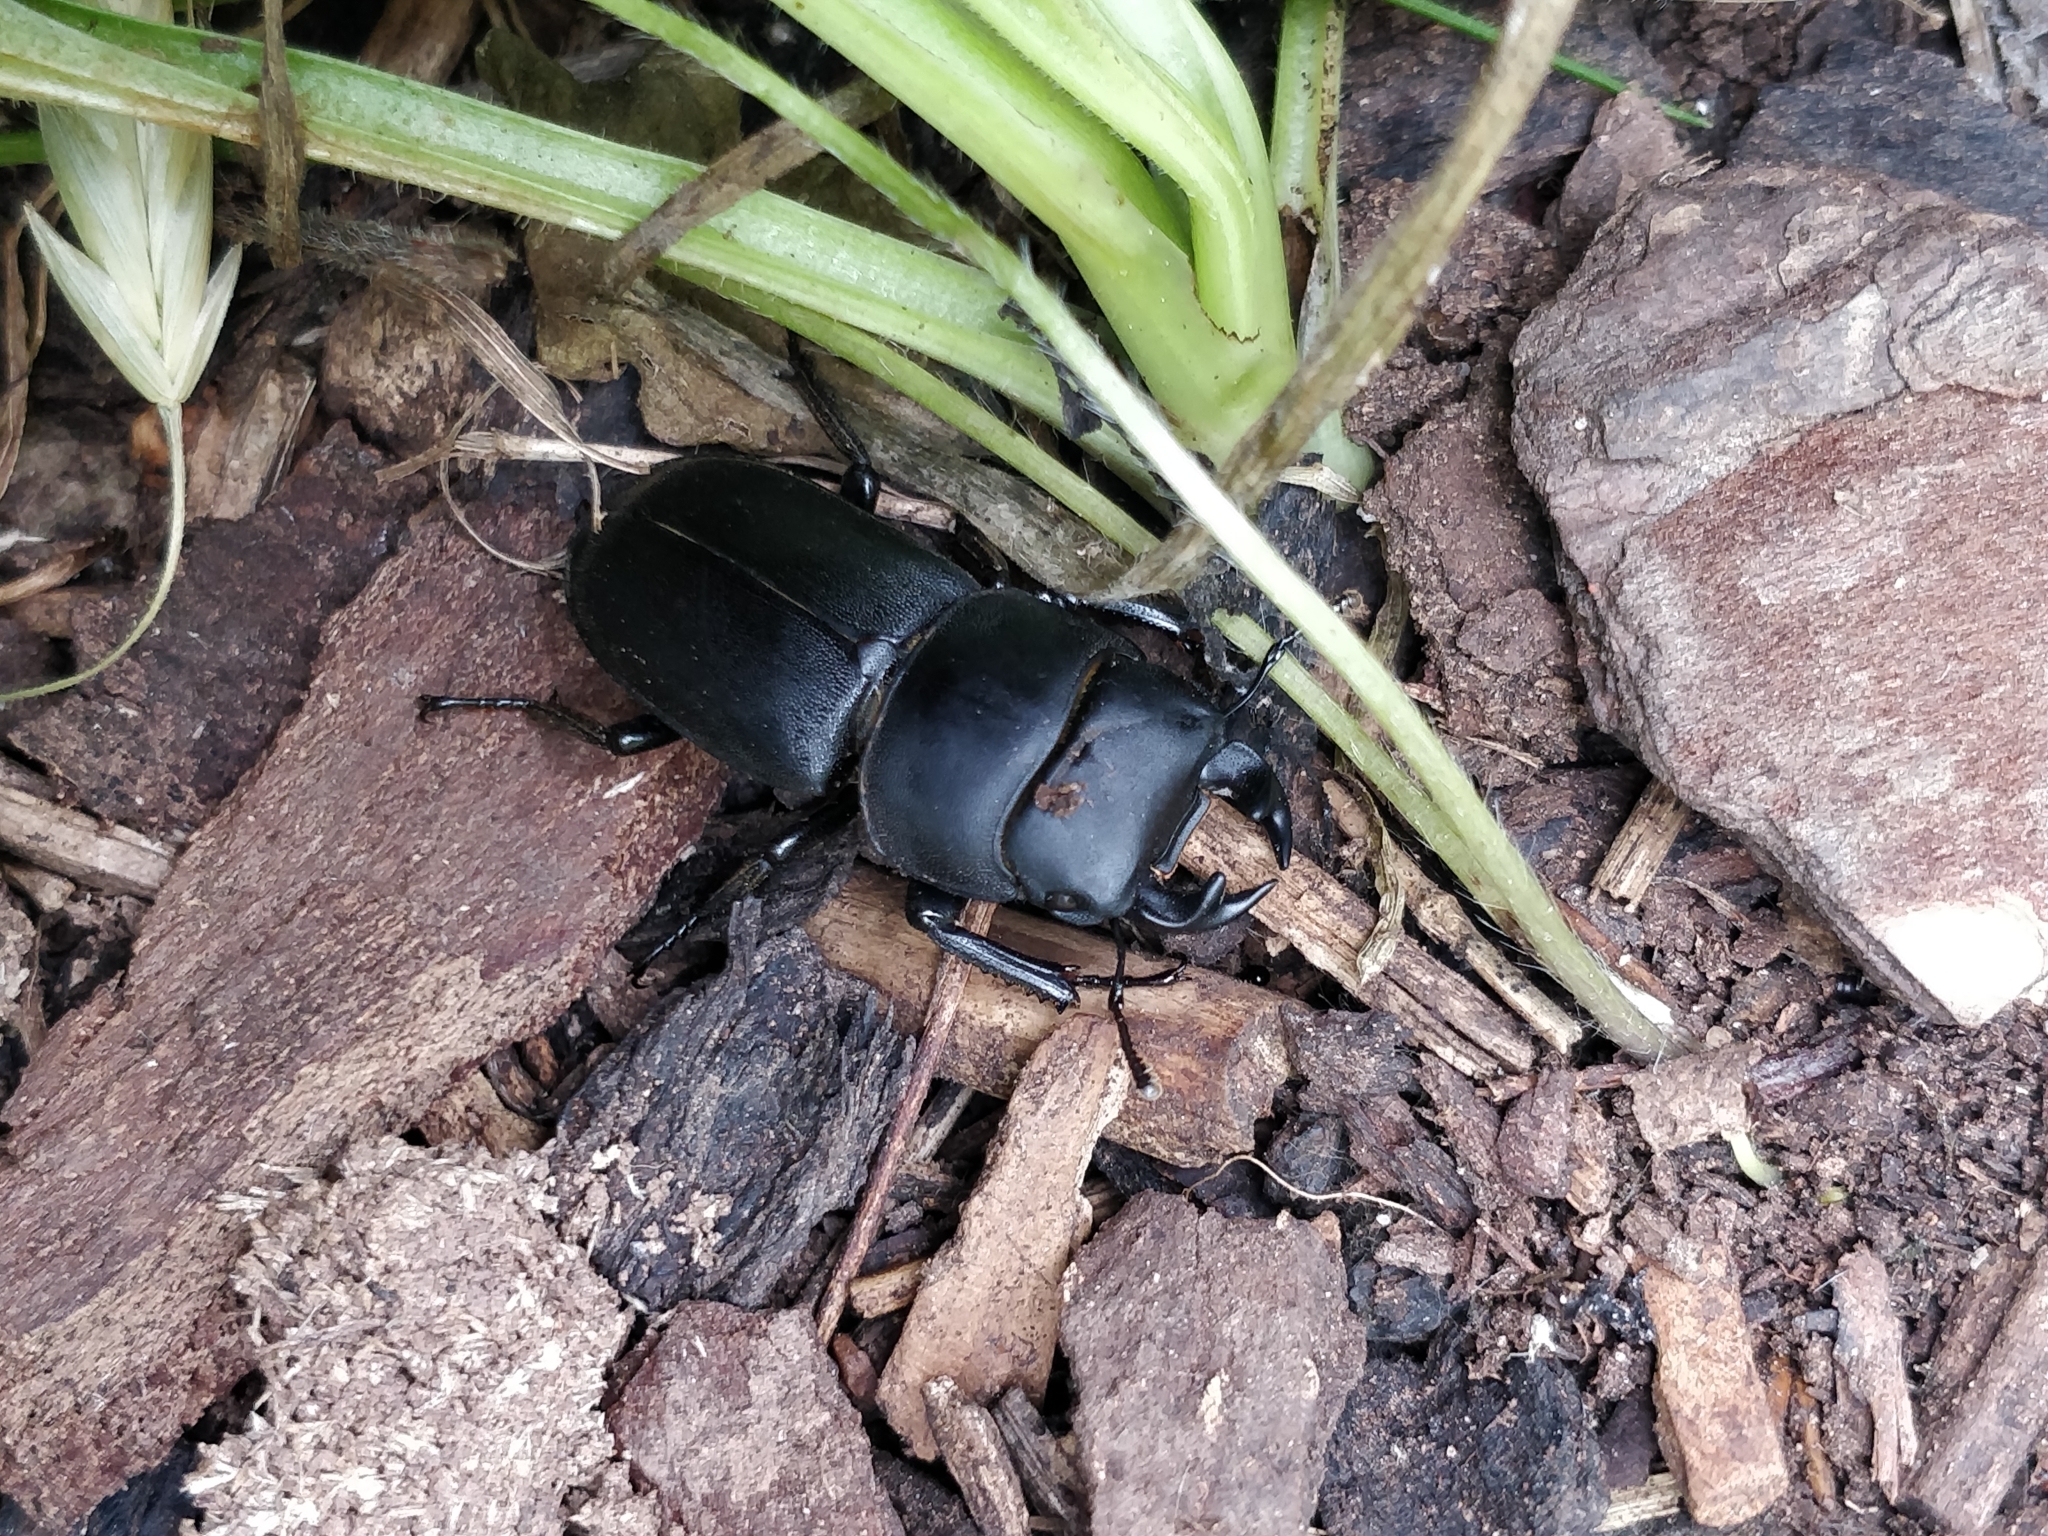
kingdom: Animalia
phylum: Arthropoda
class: Insecta
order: Coleoptera
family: Lucanidae
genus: Dorcus
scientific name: Dorcus parallelipipedus
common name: Lesser stag beetle
